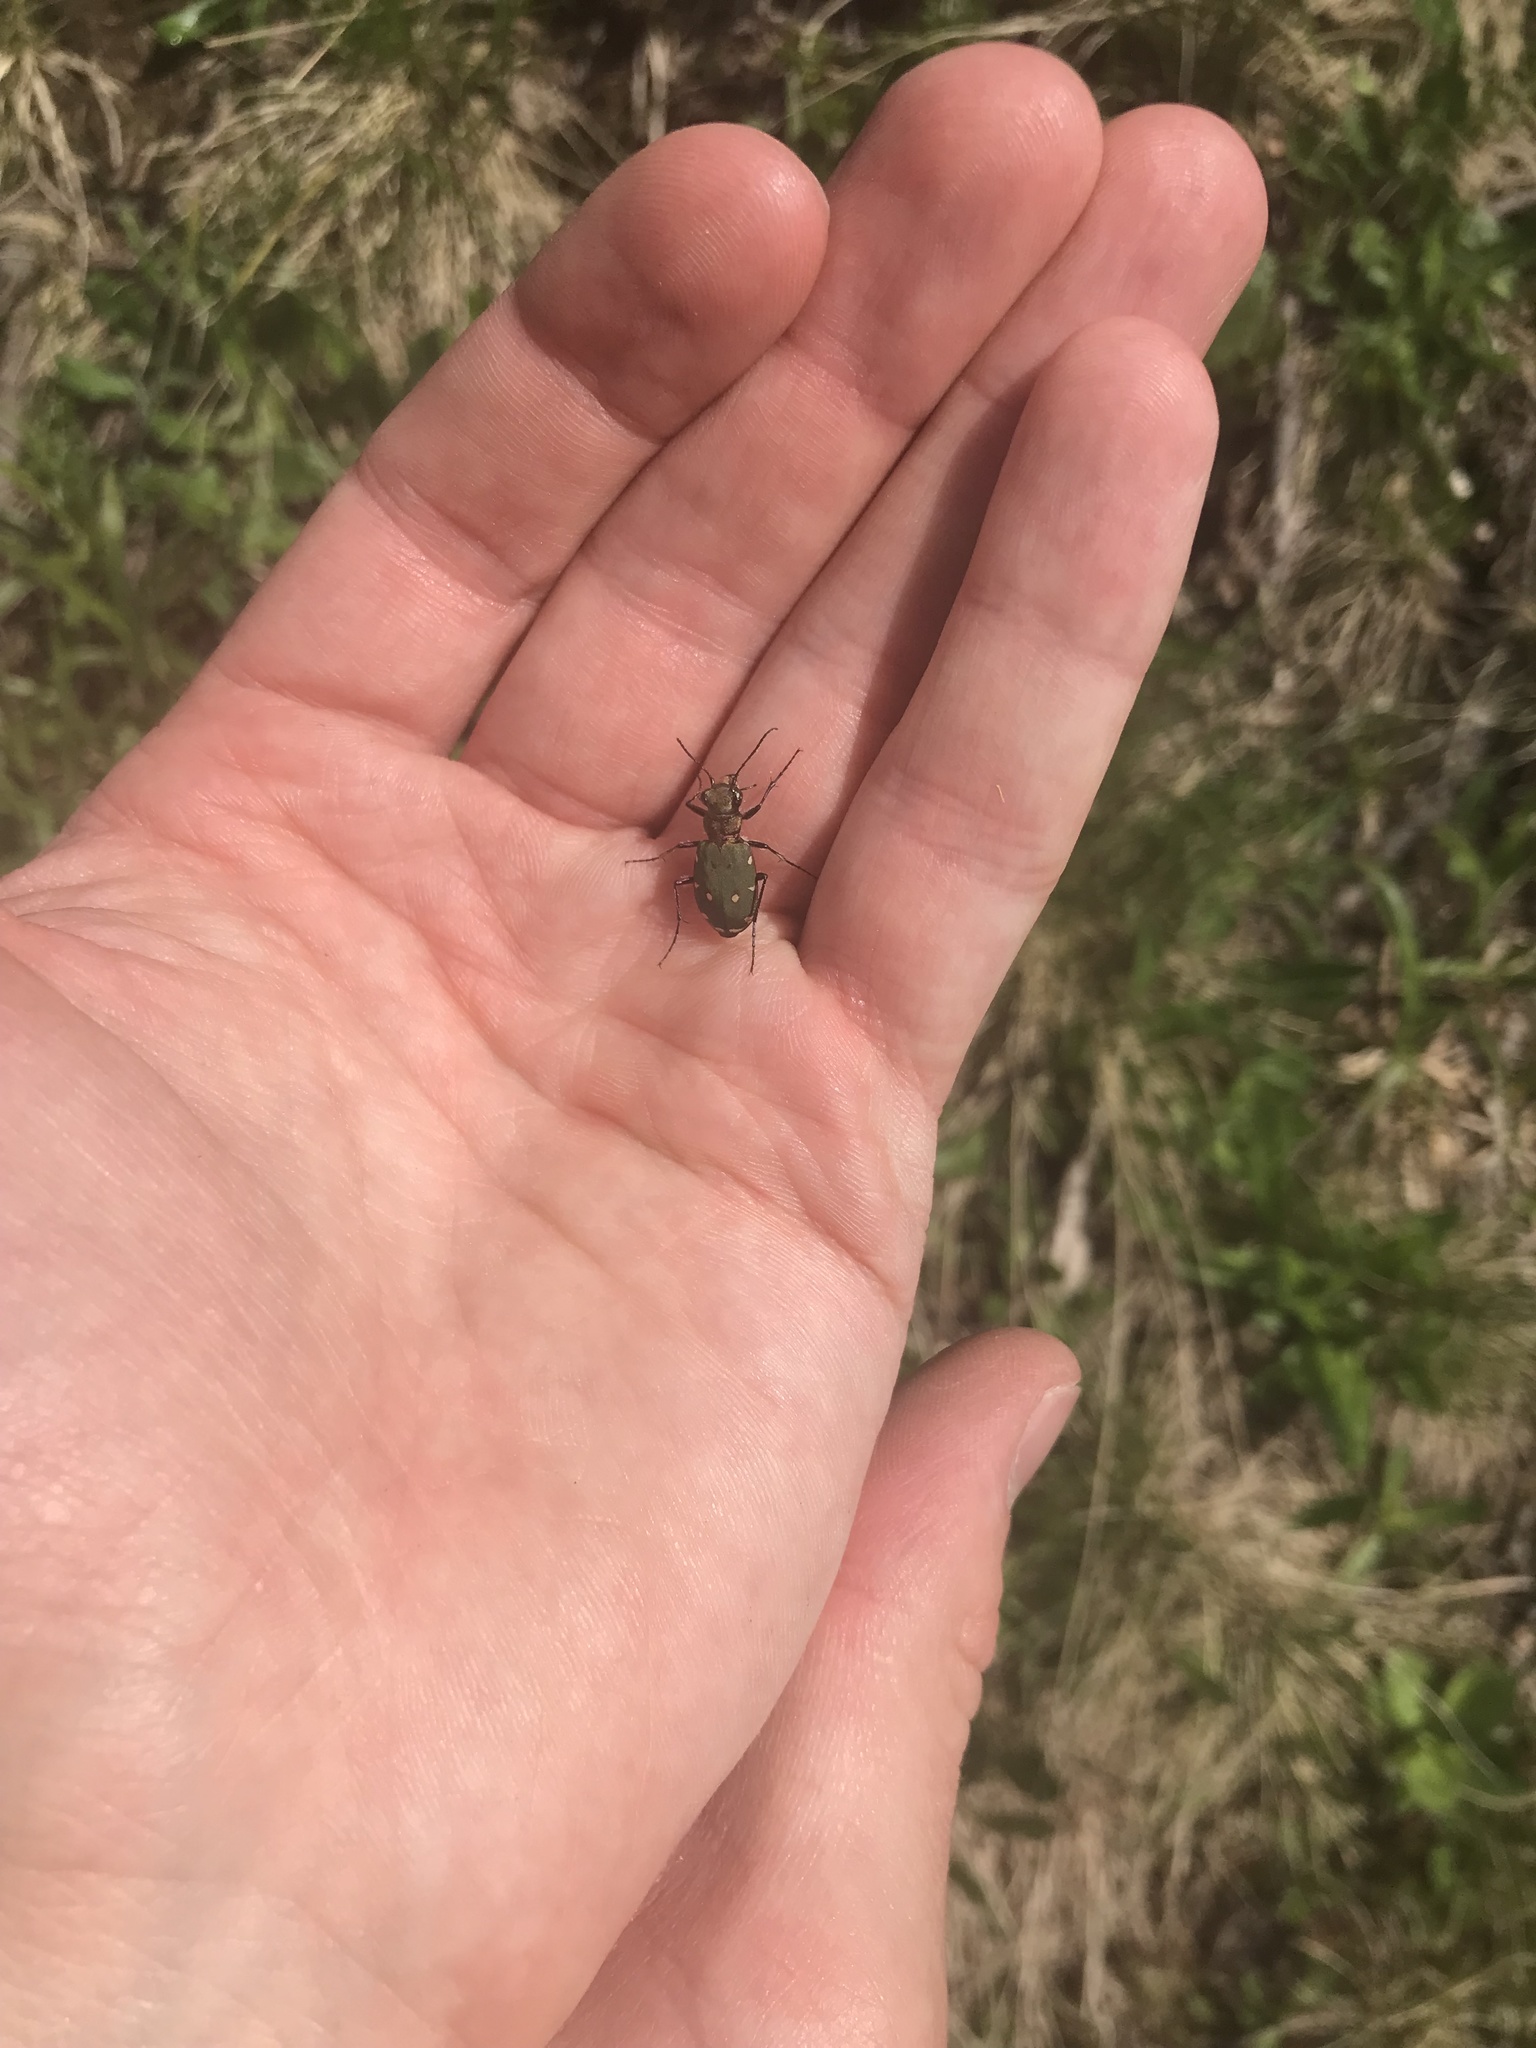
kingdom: Animalia
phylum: Arthropoda
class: Insecta
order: Coleoptera
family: Carabidae
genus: Cicindela
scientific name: Cicindela campestris
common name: Common tiger beetle
